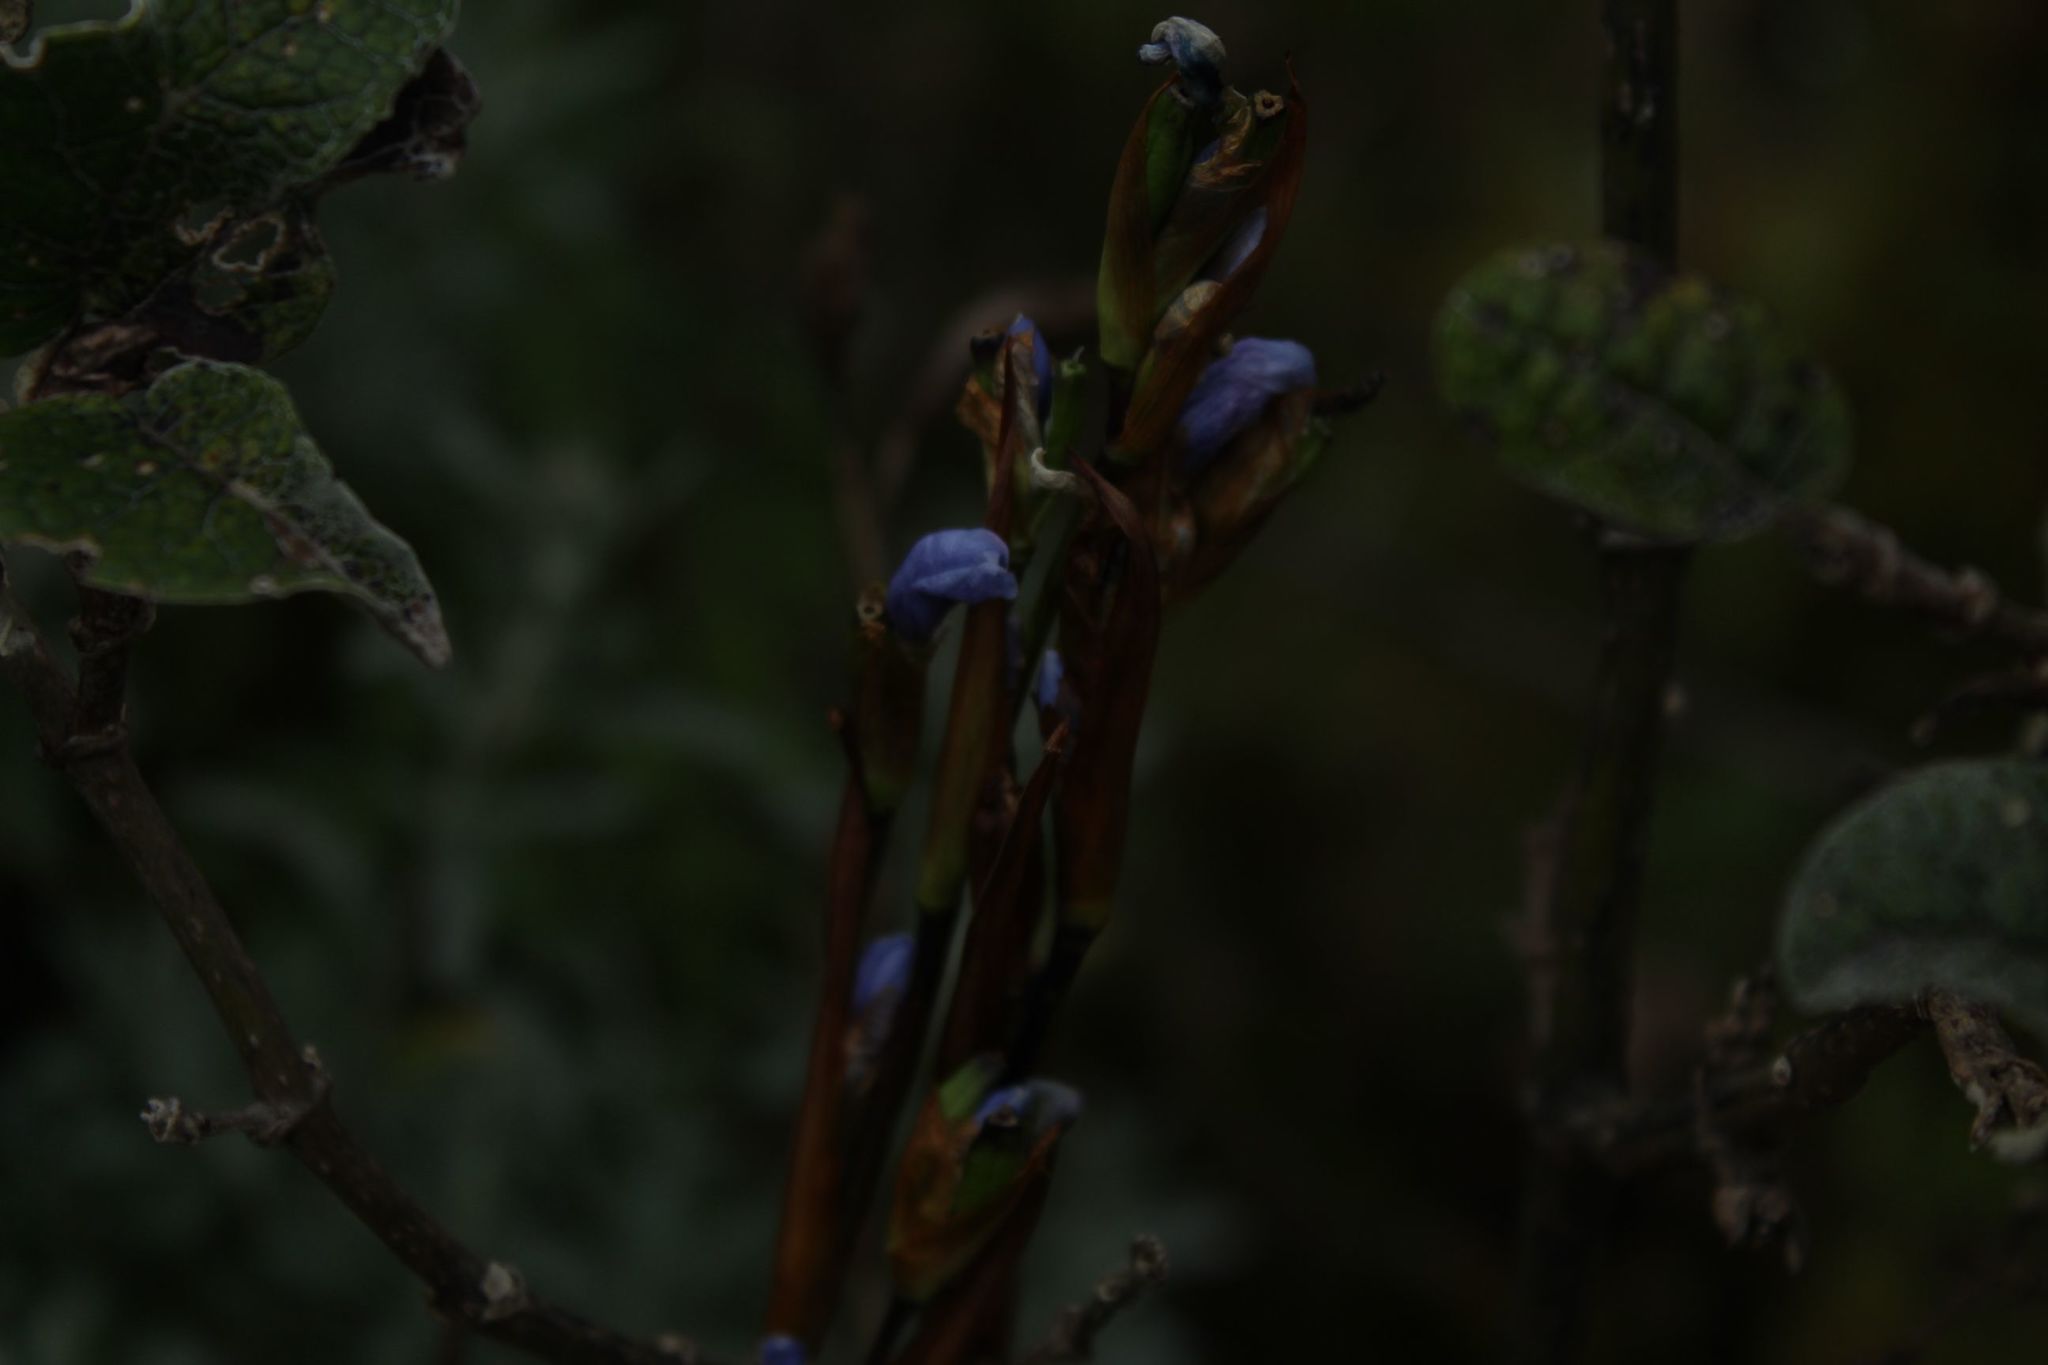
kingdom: Plantae
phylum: Tracheophyta
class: Liliopsida
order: Asparagales
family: Iridaceae
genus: Orthrosanthus
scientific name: Orthrosanthus chimboracensis
